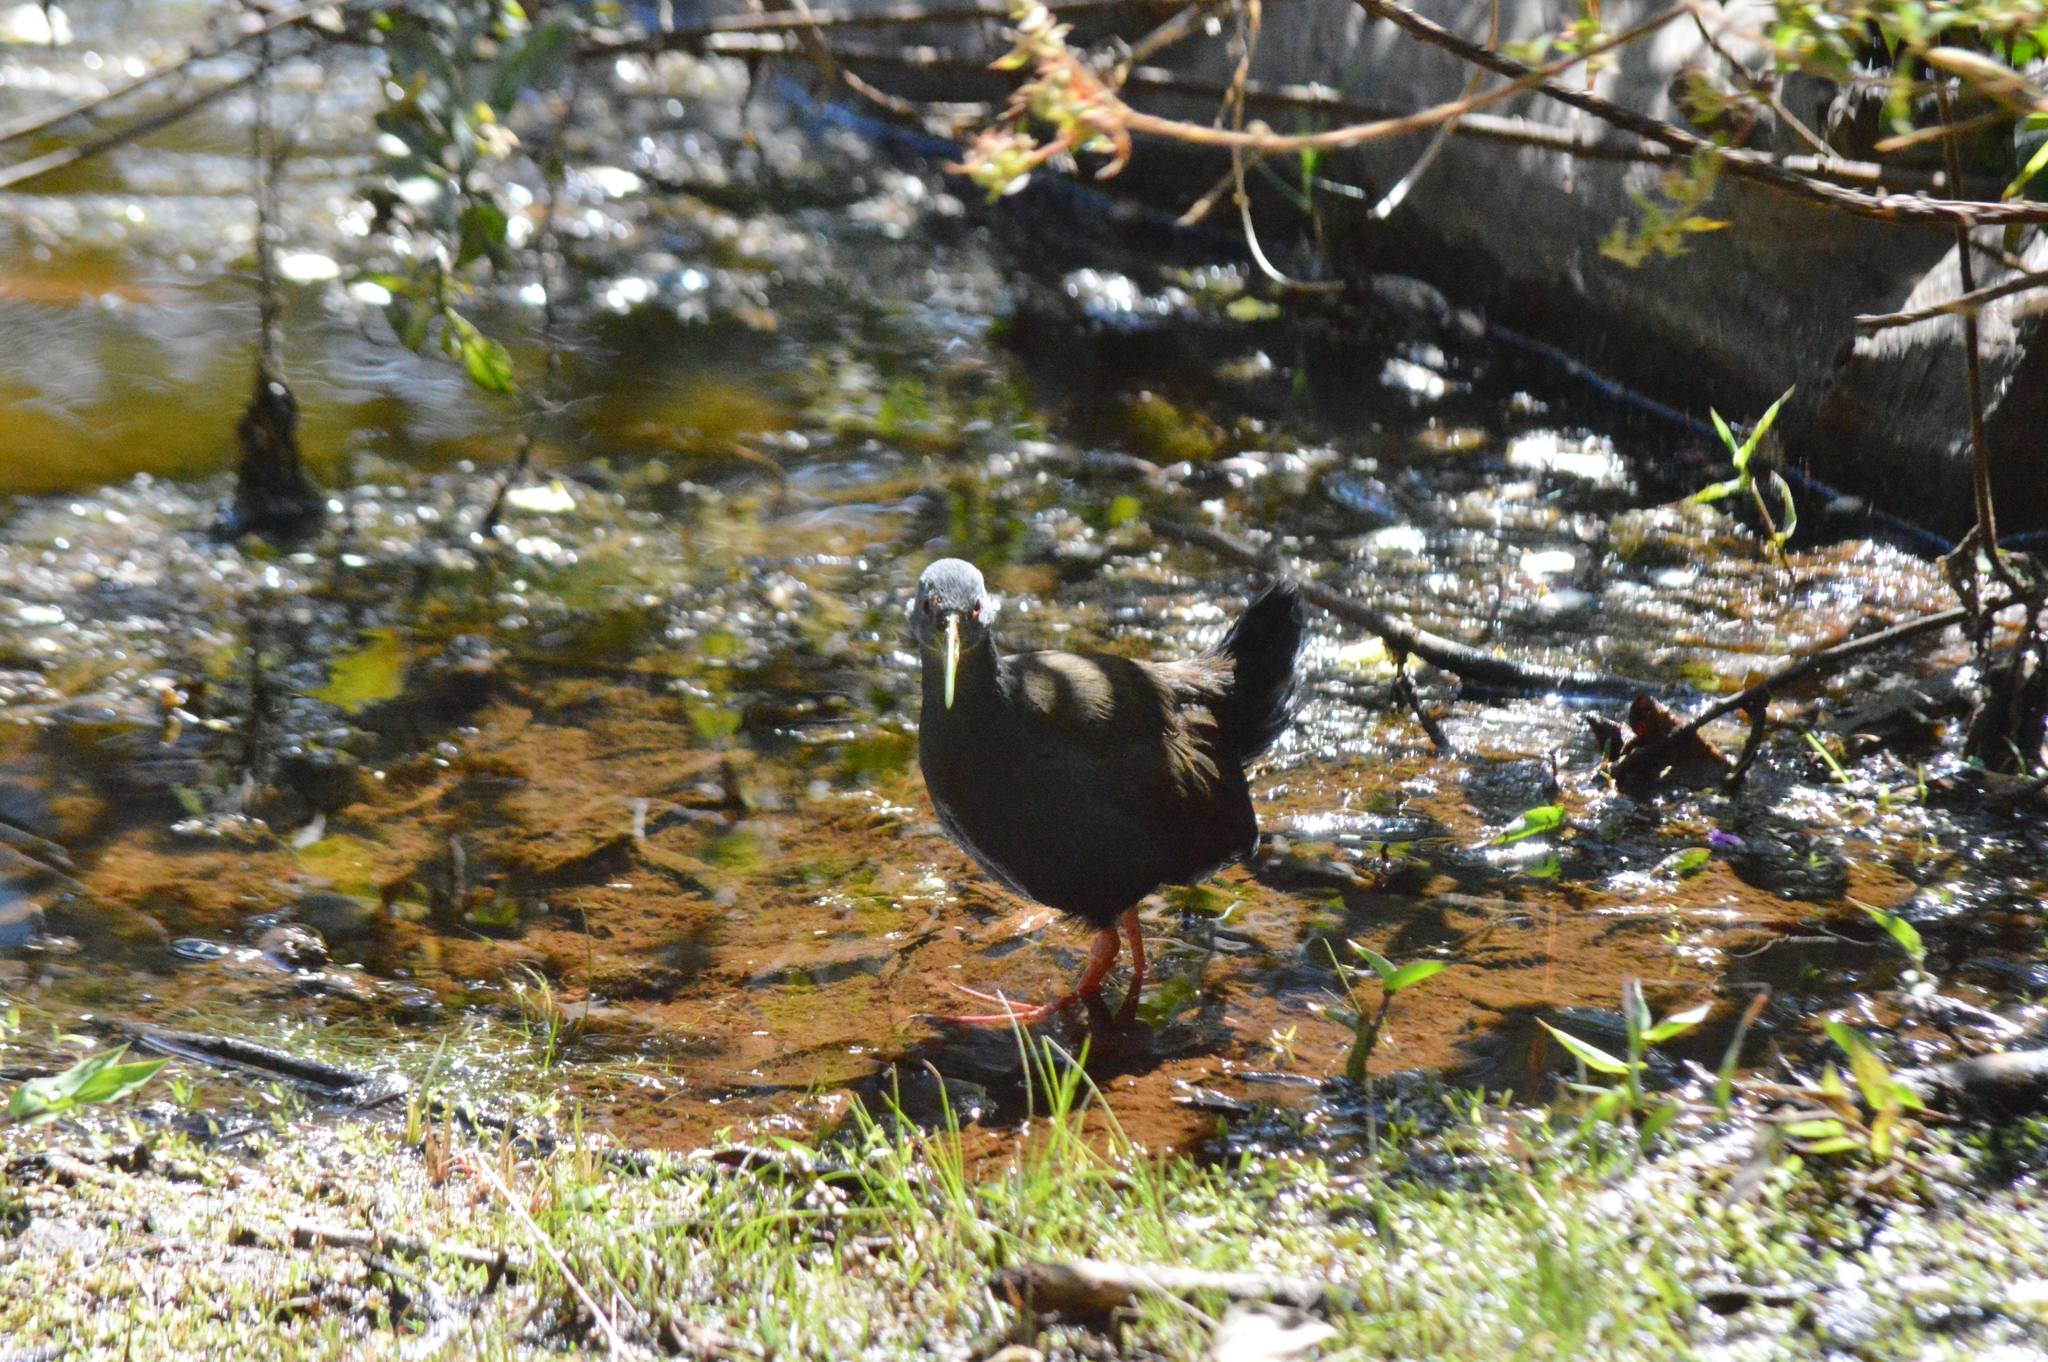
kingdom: Animalia
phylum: Chordata
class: Aves
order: Gruiformes
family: Rallidae
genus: Pardirallus
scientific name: Pardirallus nigricans
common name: Blackish rail
